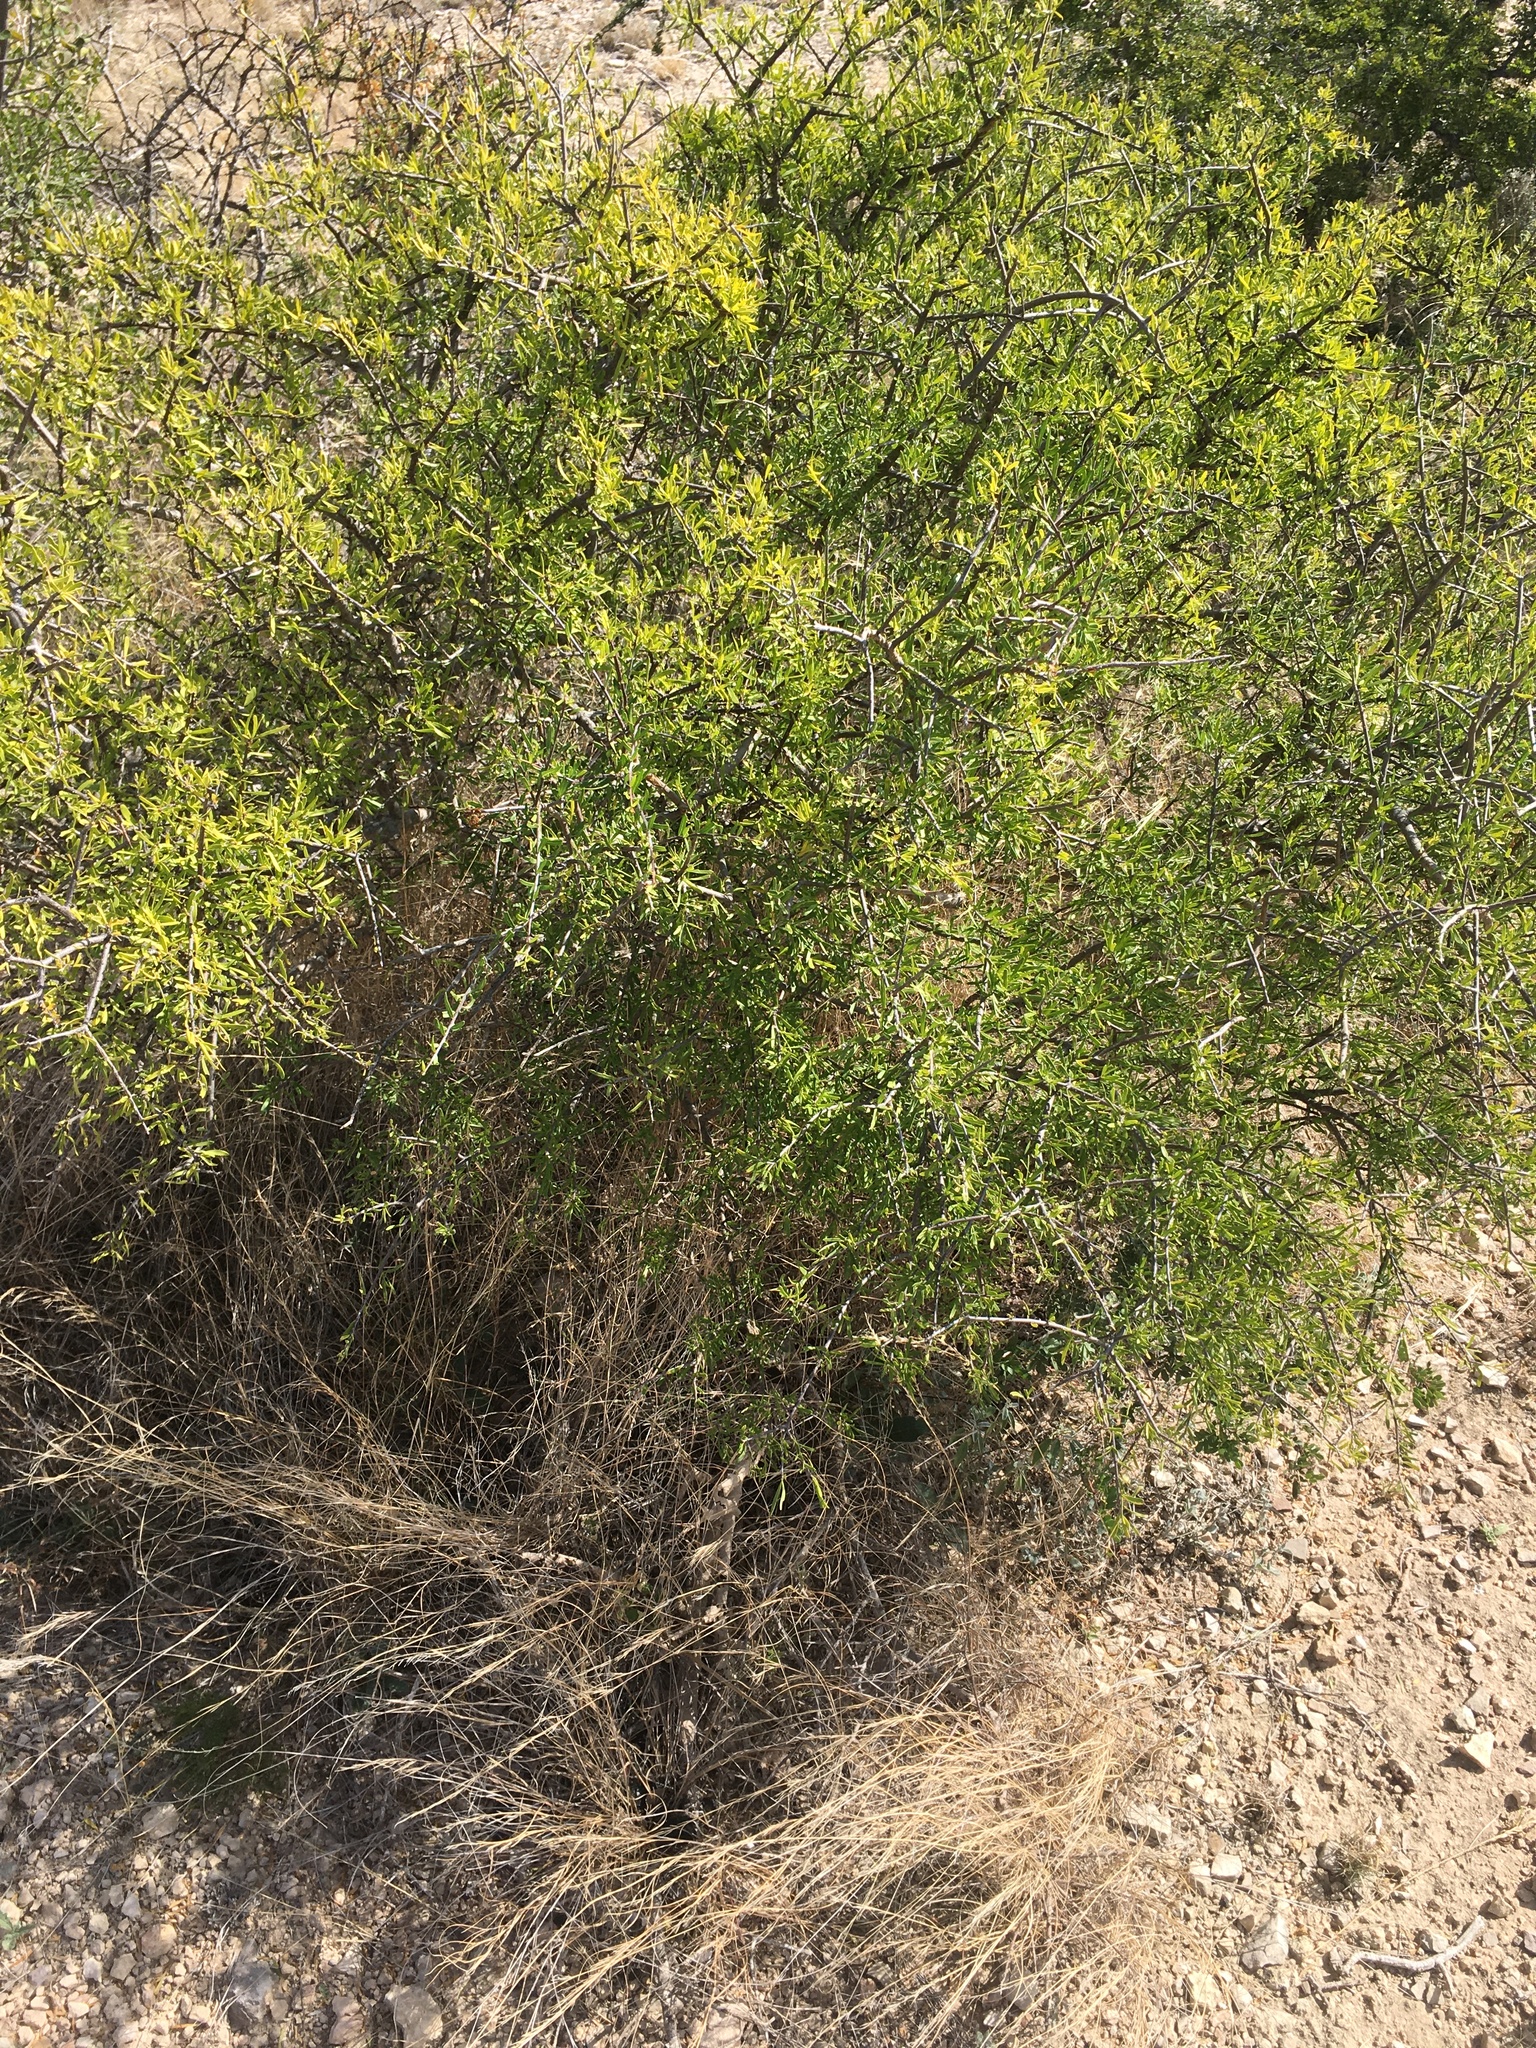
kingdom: Plantae
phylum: Tracheophyta
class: Magnoliopsida
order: Lamiales
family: Oleaceae
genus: Forestiera
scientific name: Forestiera angustifolia
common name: Elbowbush
